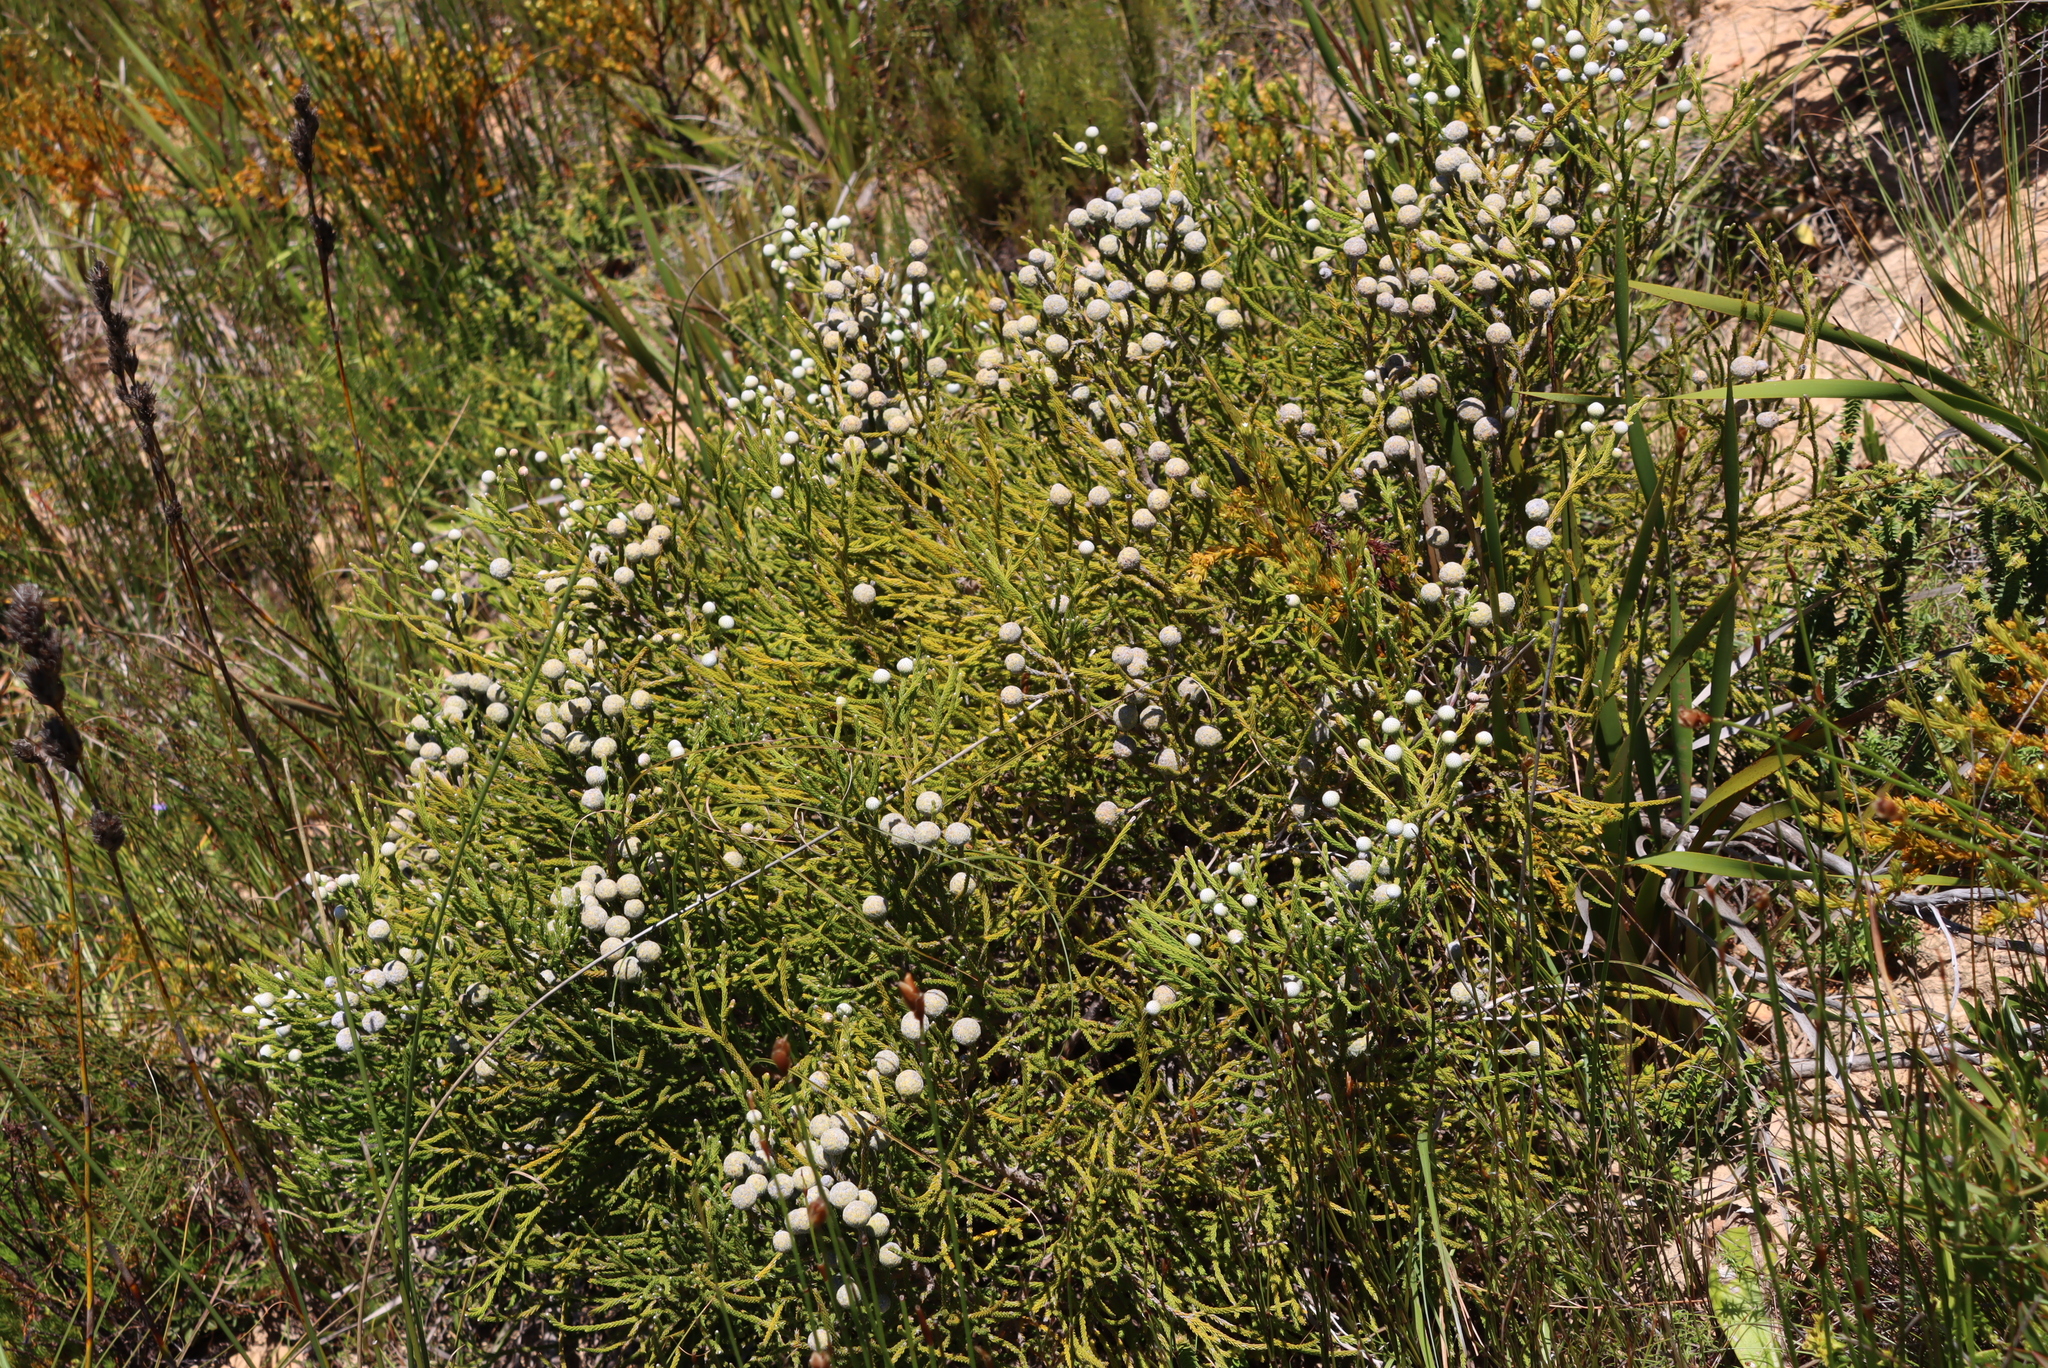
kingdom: Plantae
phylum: Tracheophyta
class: Magnoliopsida
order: Bruniales
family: Bruniaceae
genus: Brunia
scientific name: Brunia noduliflora
